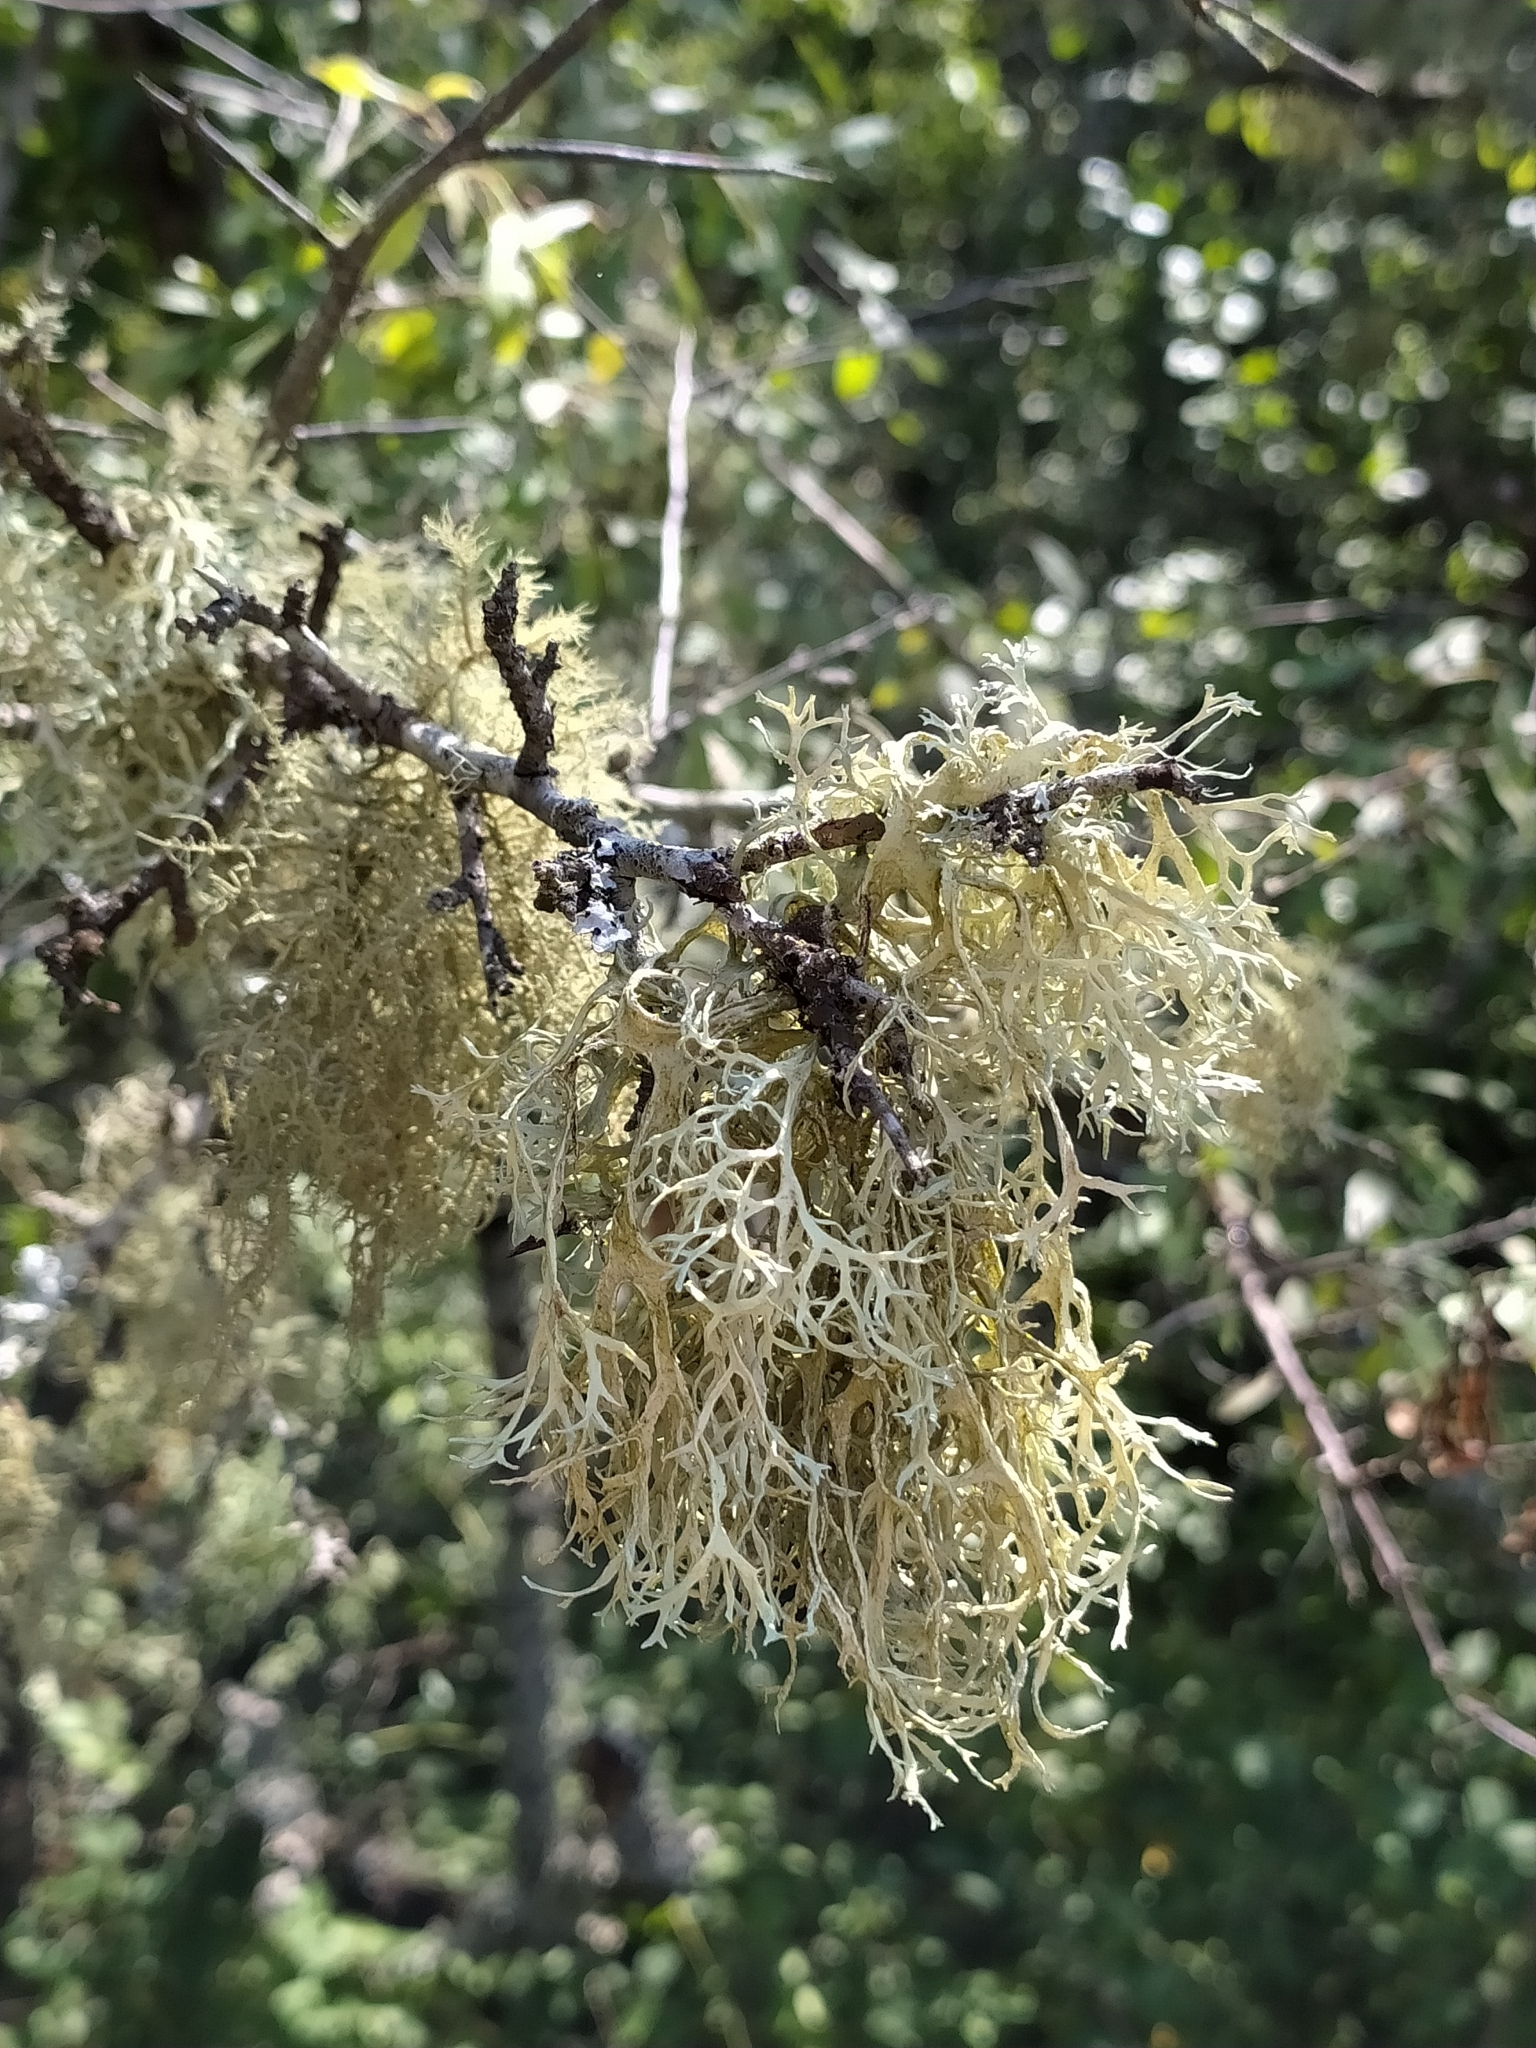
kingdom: Fungi
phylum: Ascomycota
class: Lecanoromycetes
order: Lecanorales
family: Parmeliaceae
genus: Evernia
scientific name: Evernia prunastri
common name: Oak moss
